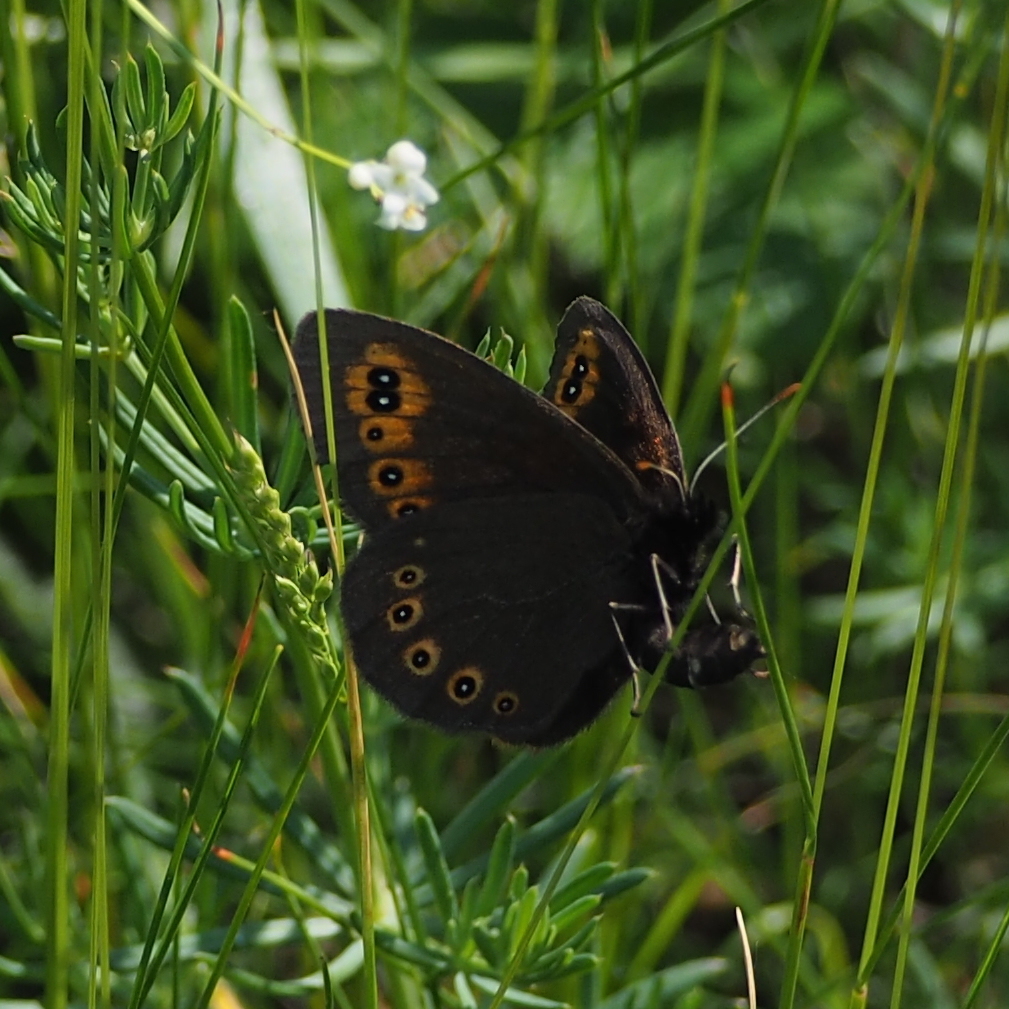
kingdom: Animalia
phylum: Arthropoda
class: Insecta
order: Lepidoptera
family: Nymphalidae
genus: Erebia
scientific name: Erebia medusa
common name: Woodland ringlet
